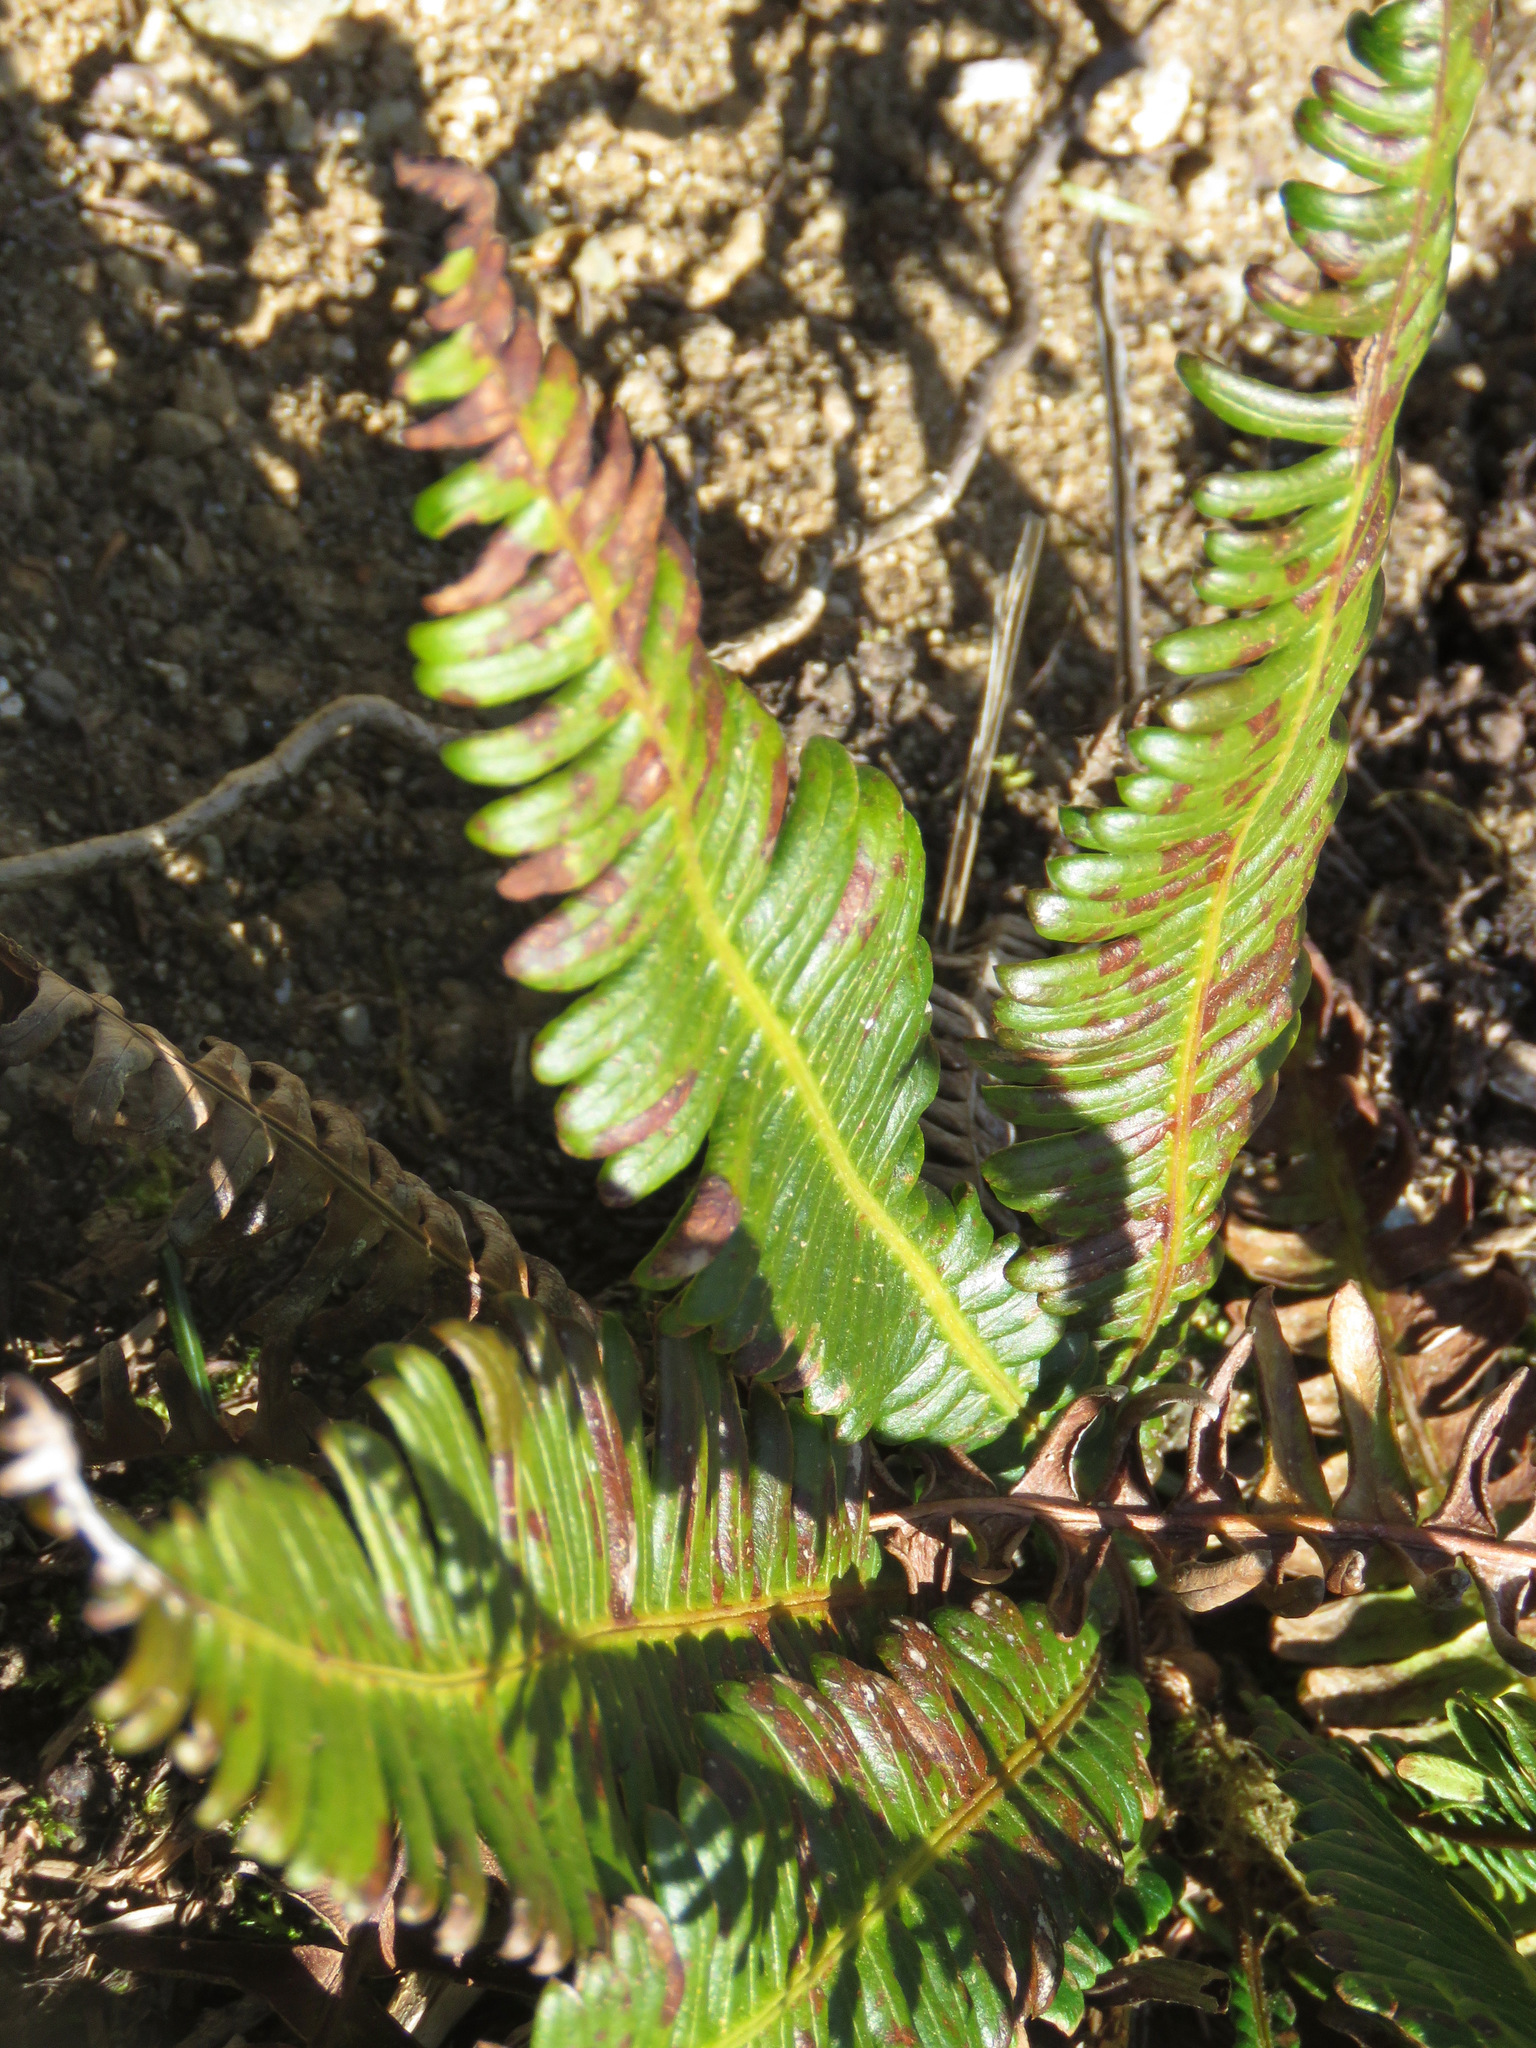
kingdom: Plantae
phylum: Tracheophyta
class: Polypodiopsida
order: Polypodiales
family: Blechnaceae
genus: Struthiopteris
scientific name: Struthiopteris spicant
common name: Deer fern
